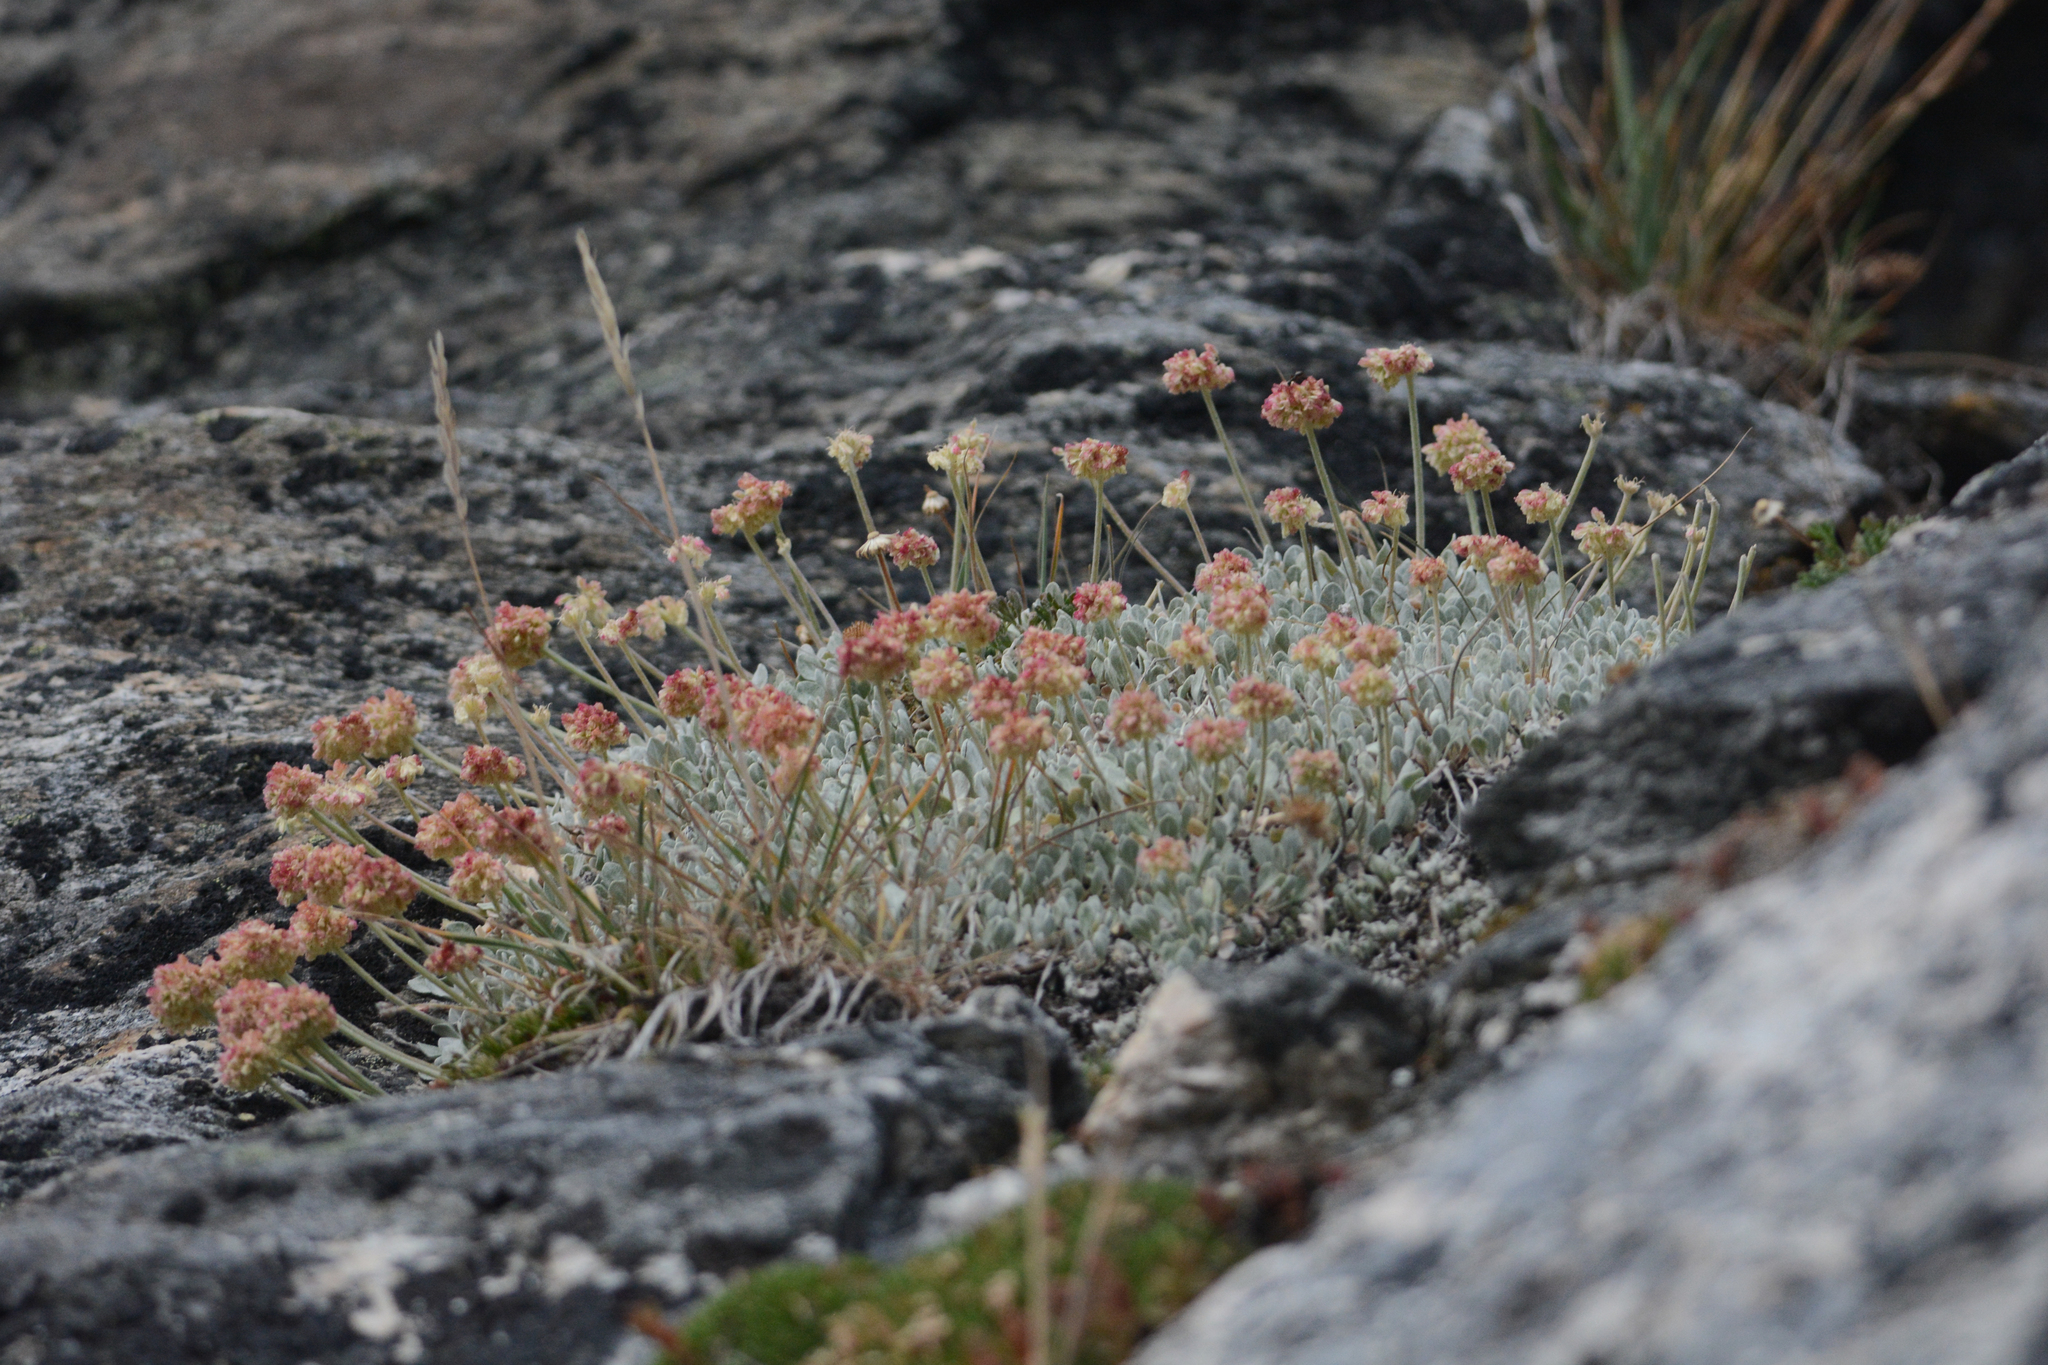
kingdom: Plantae
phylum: Tracheophyta
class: Magnoliopsida
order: Caryophyllales
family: Polygonaceae
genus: Eriogonum
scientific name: Eriogonum ovalifolium
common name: Cushion buckwheat
